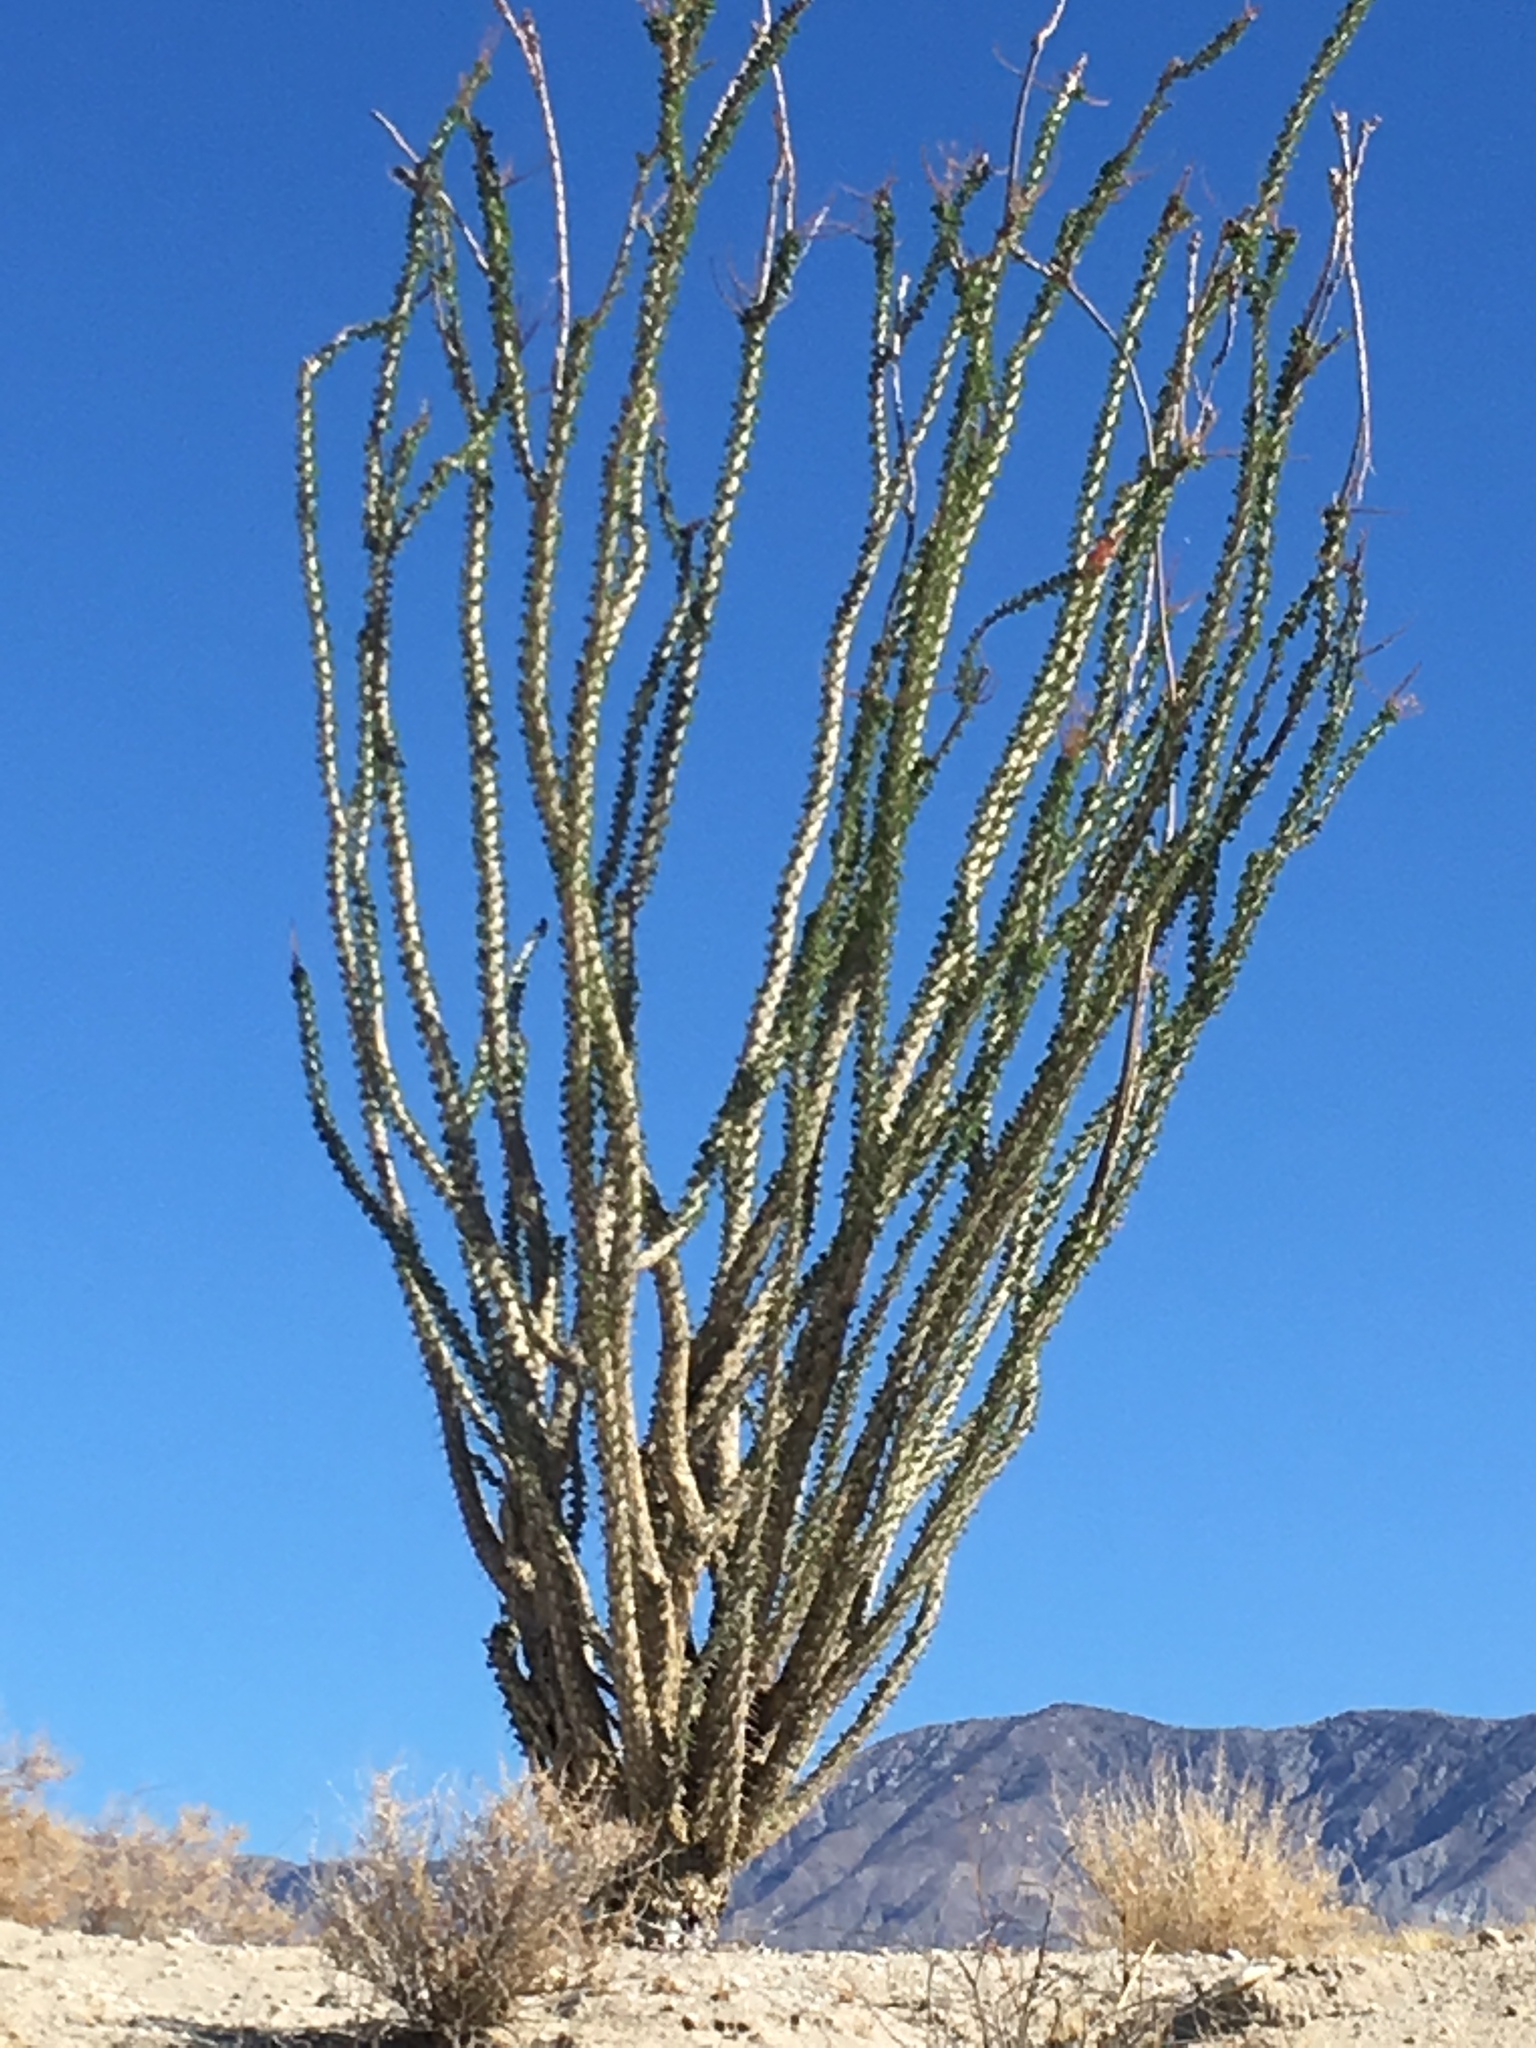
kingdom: Plantae
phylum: Tracheophyta
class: Magnoliopsida
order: Ericales
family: Fouquieriaceae
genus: Fouquieria
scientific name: Fouquieria splendens
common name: Vine-cactus
